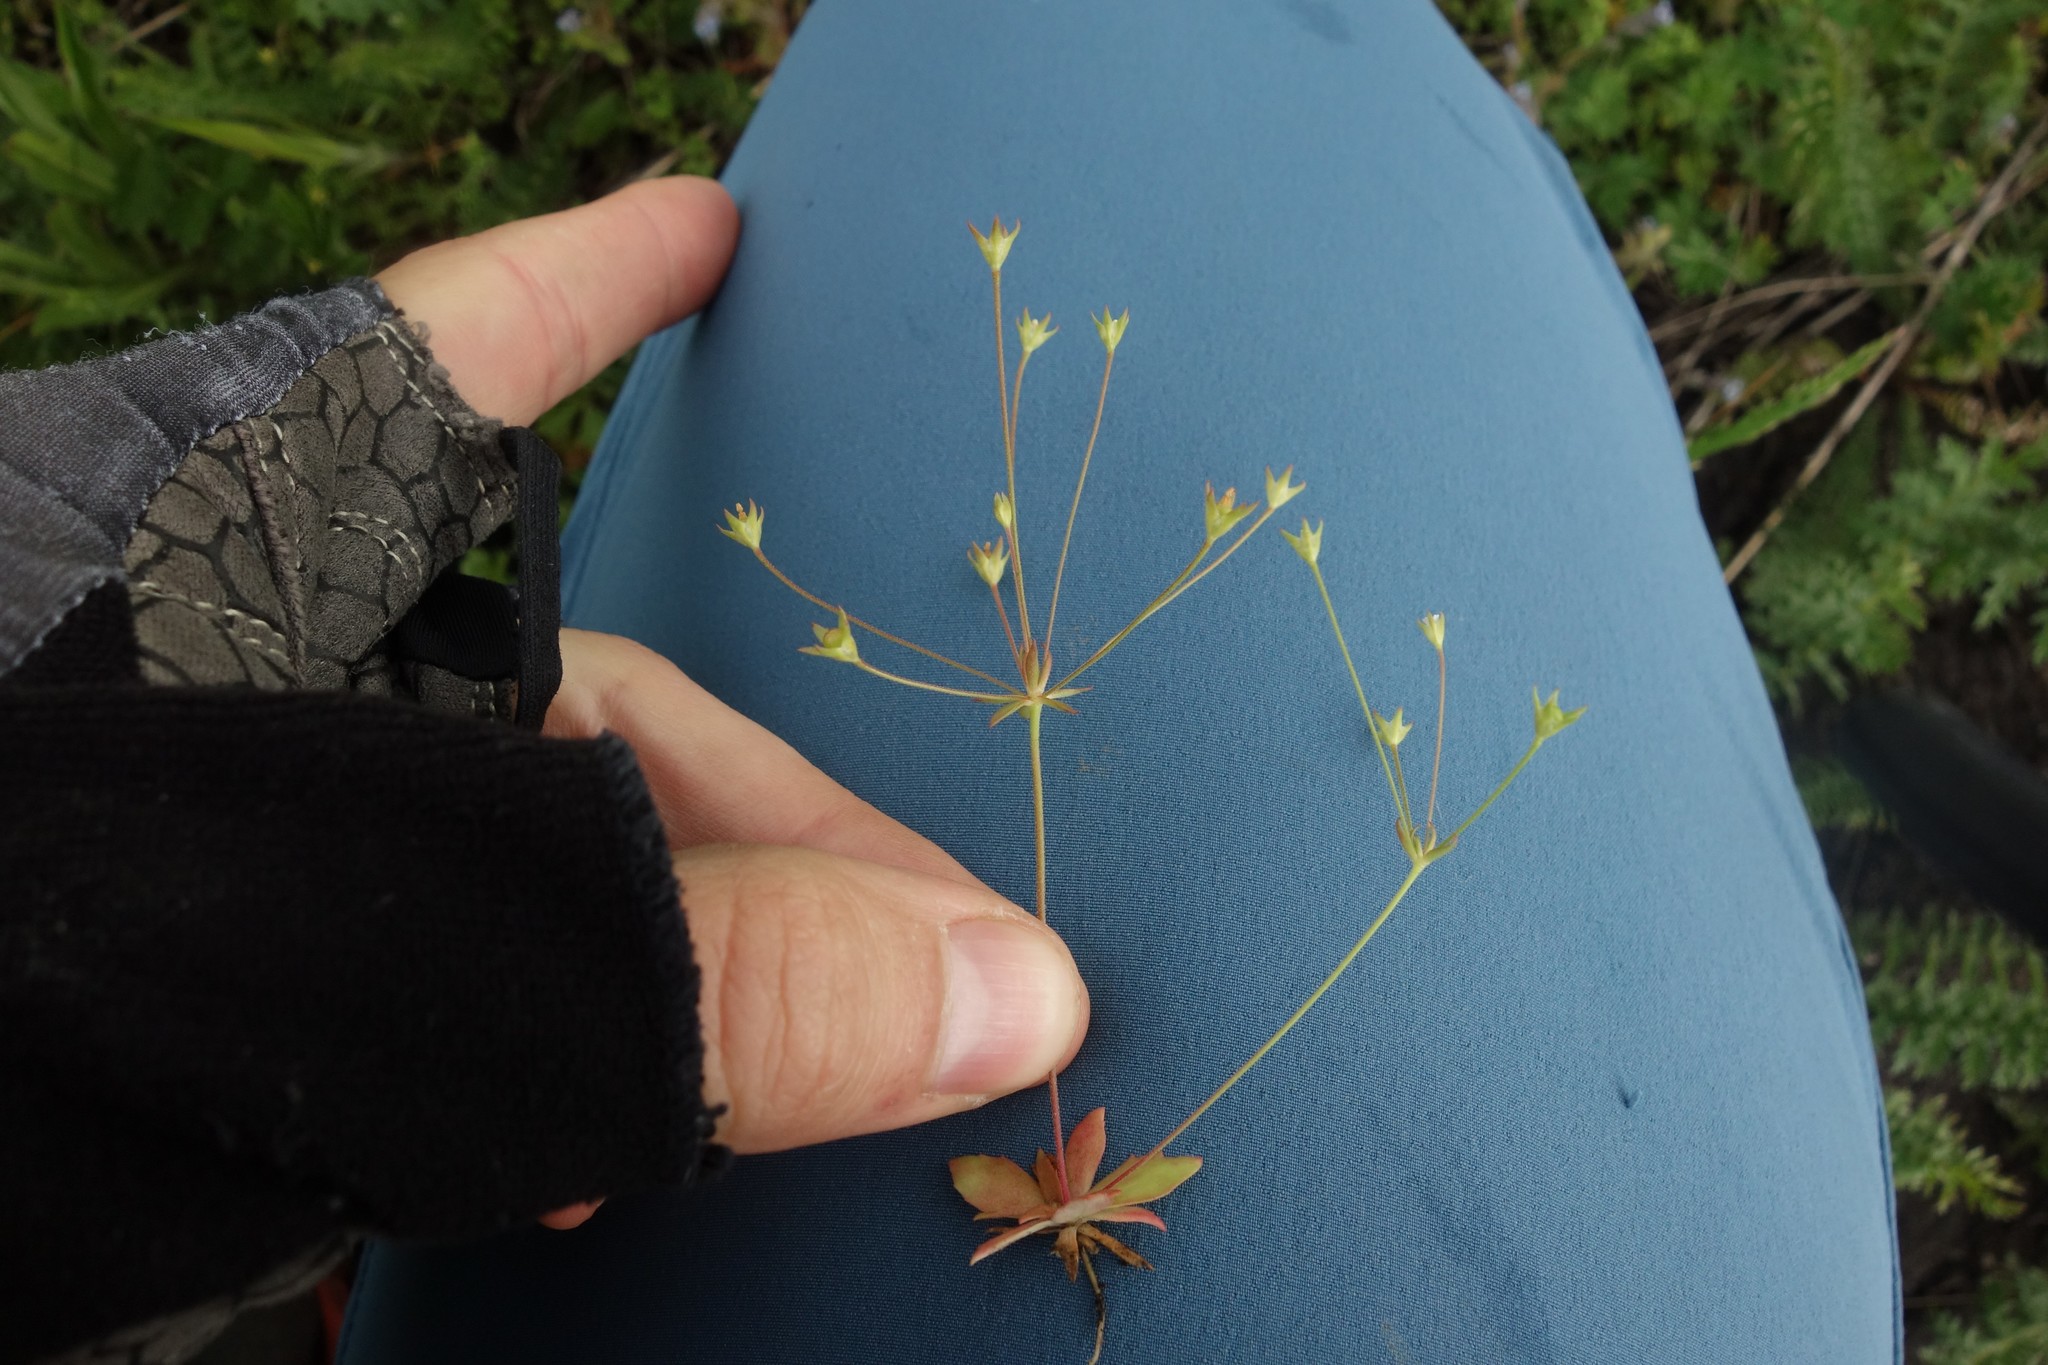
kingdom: Plantae
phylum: Tracheophyta
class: Magnoliopsida
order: Ericales
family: Primulaceae
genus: Androsace
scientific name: Androsace elongata
